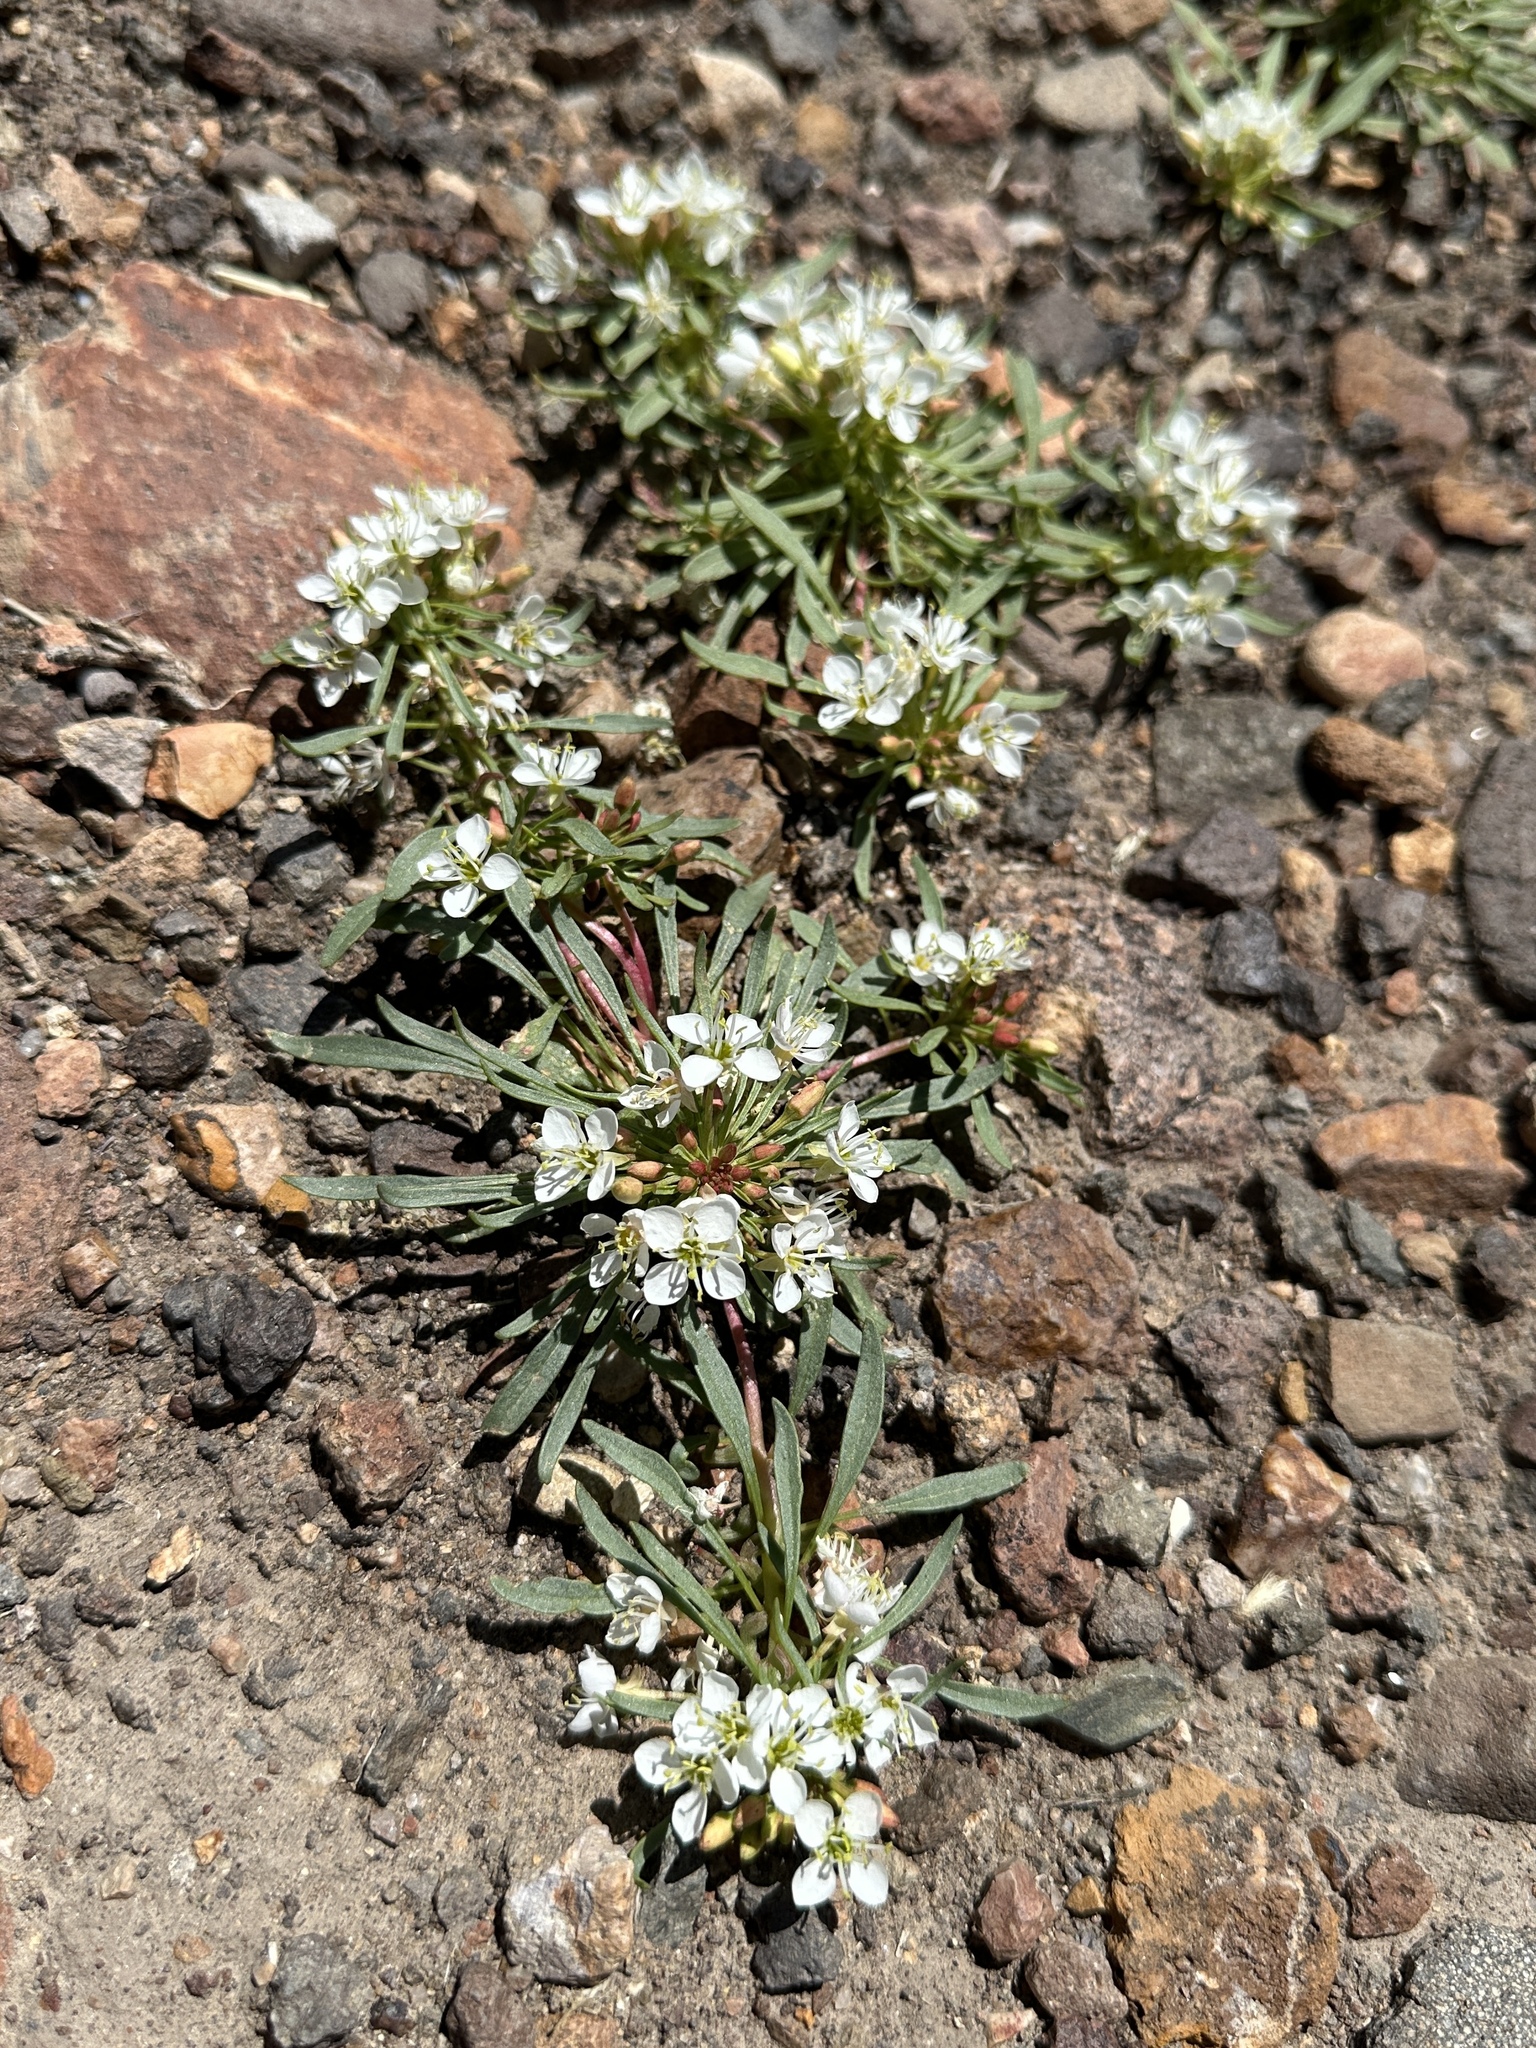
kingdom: Plantae
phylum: Tracheophyta
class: Magnoliopsida
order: Myrtales
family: Onagraceae
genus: Eremothera
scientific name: Eremothera nevadensis
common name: Nevada suncup
